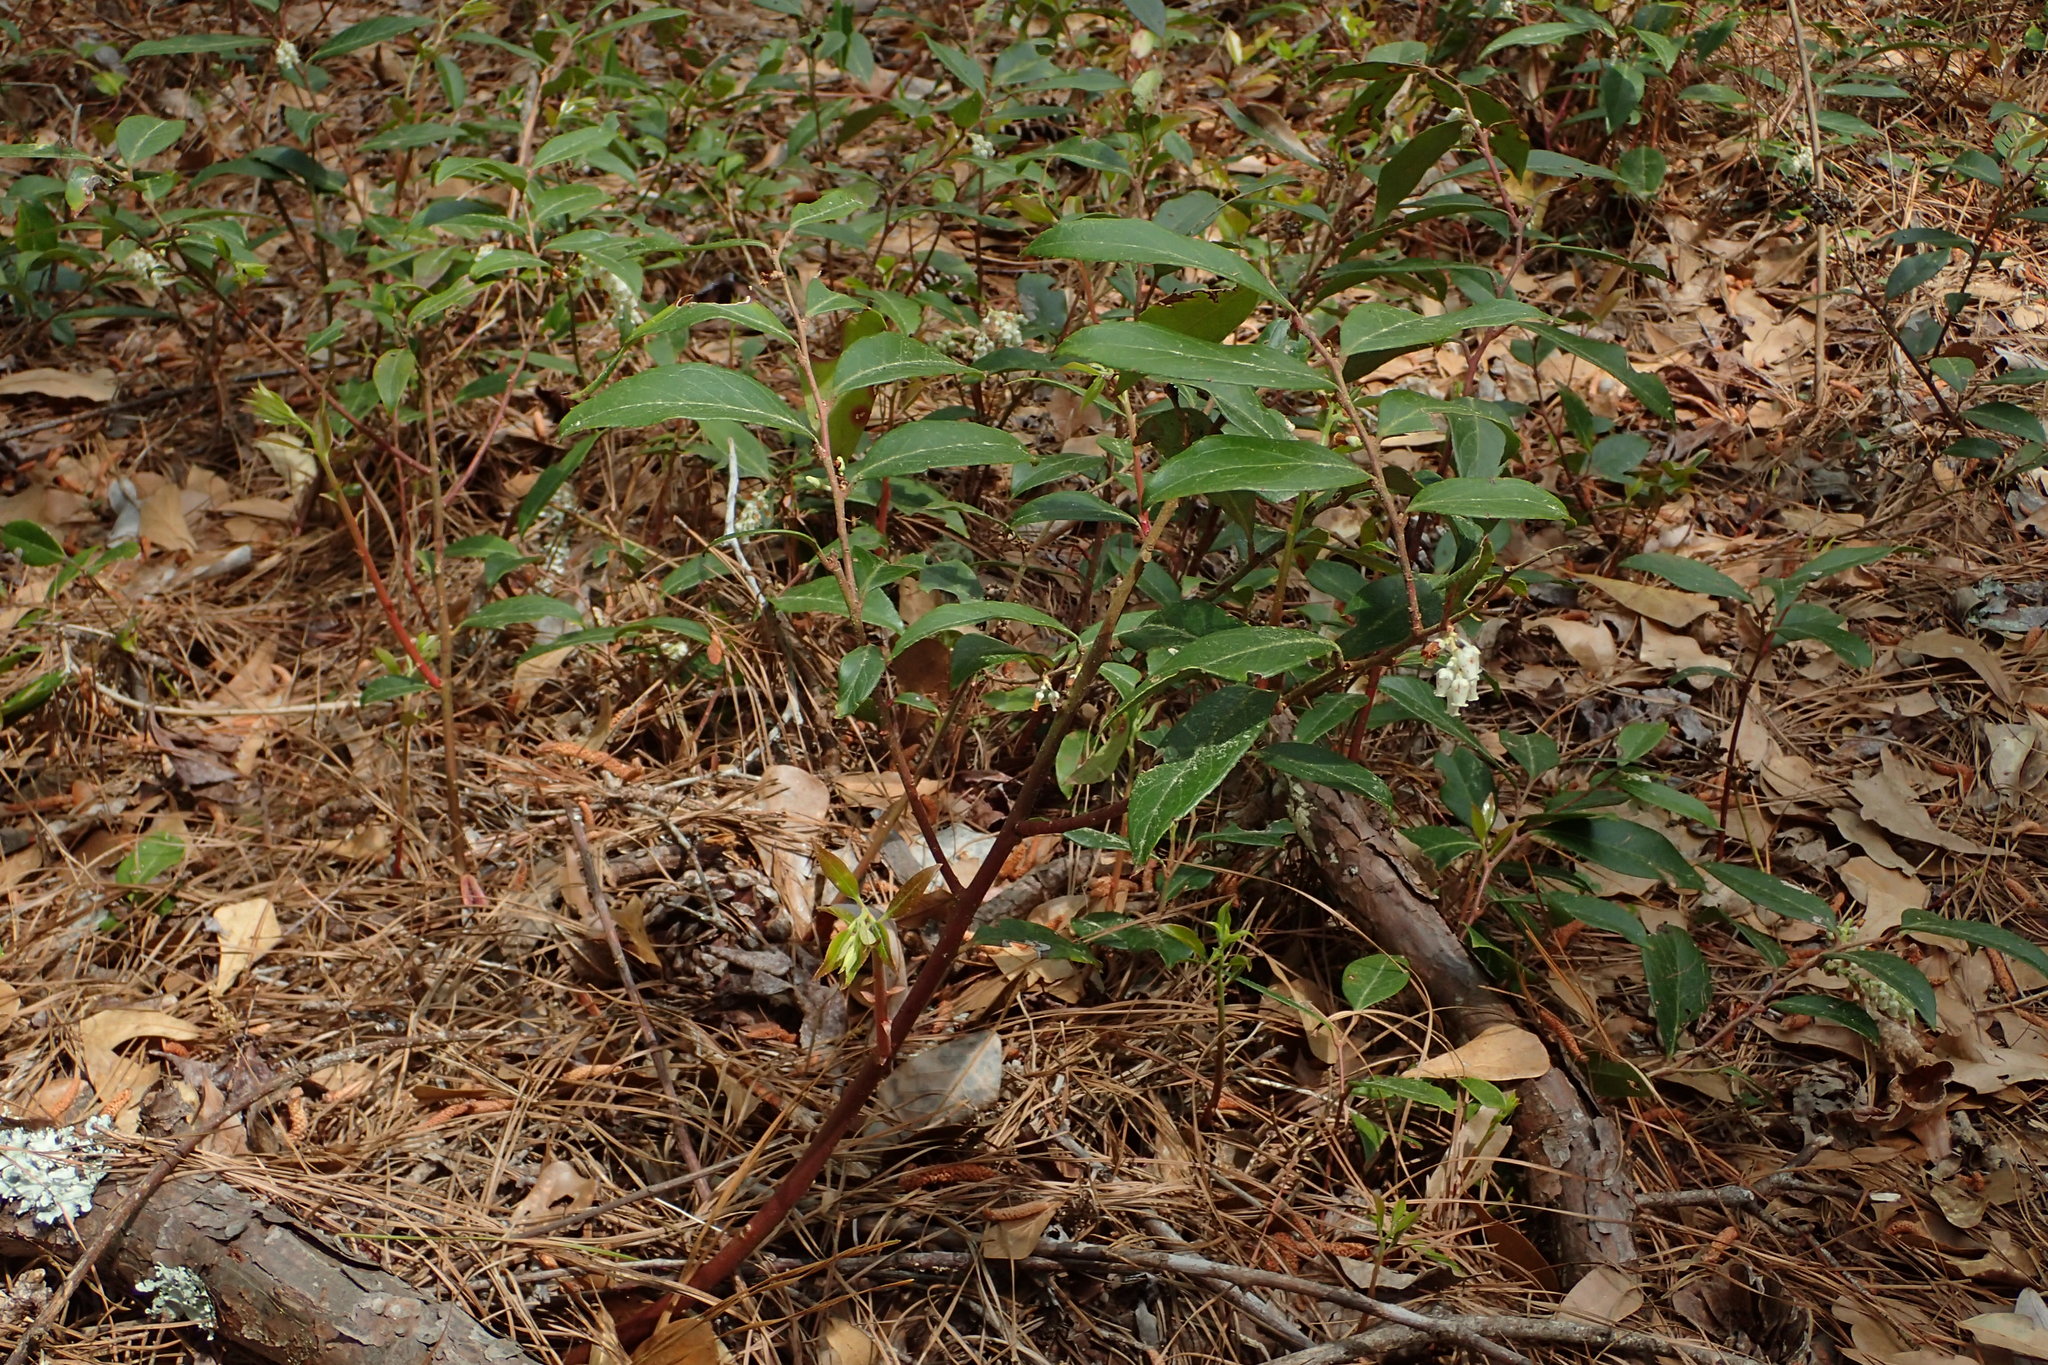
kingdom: Plantae
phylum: Tracheophyta
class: Magnoliopsida
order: Ericales
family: Ericaceae
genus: Leucothoe
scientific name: Leucothoe axillaris
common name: Leucothoe
